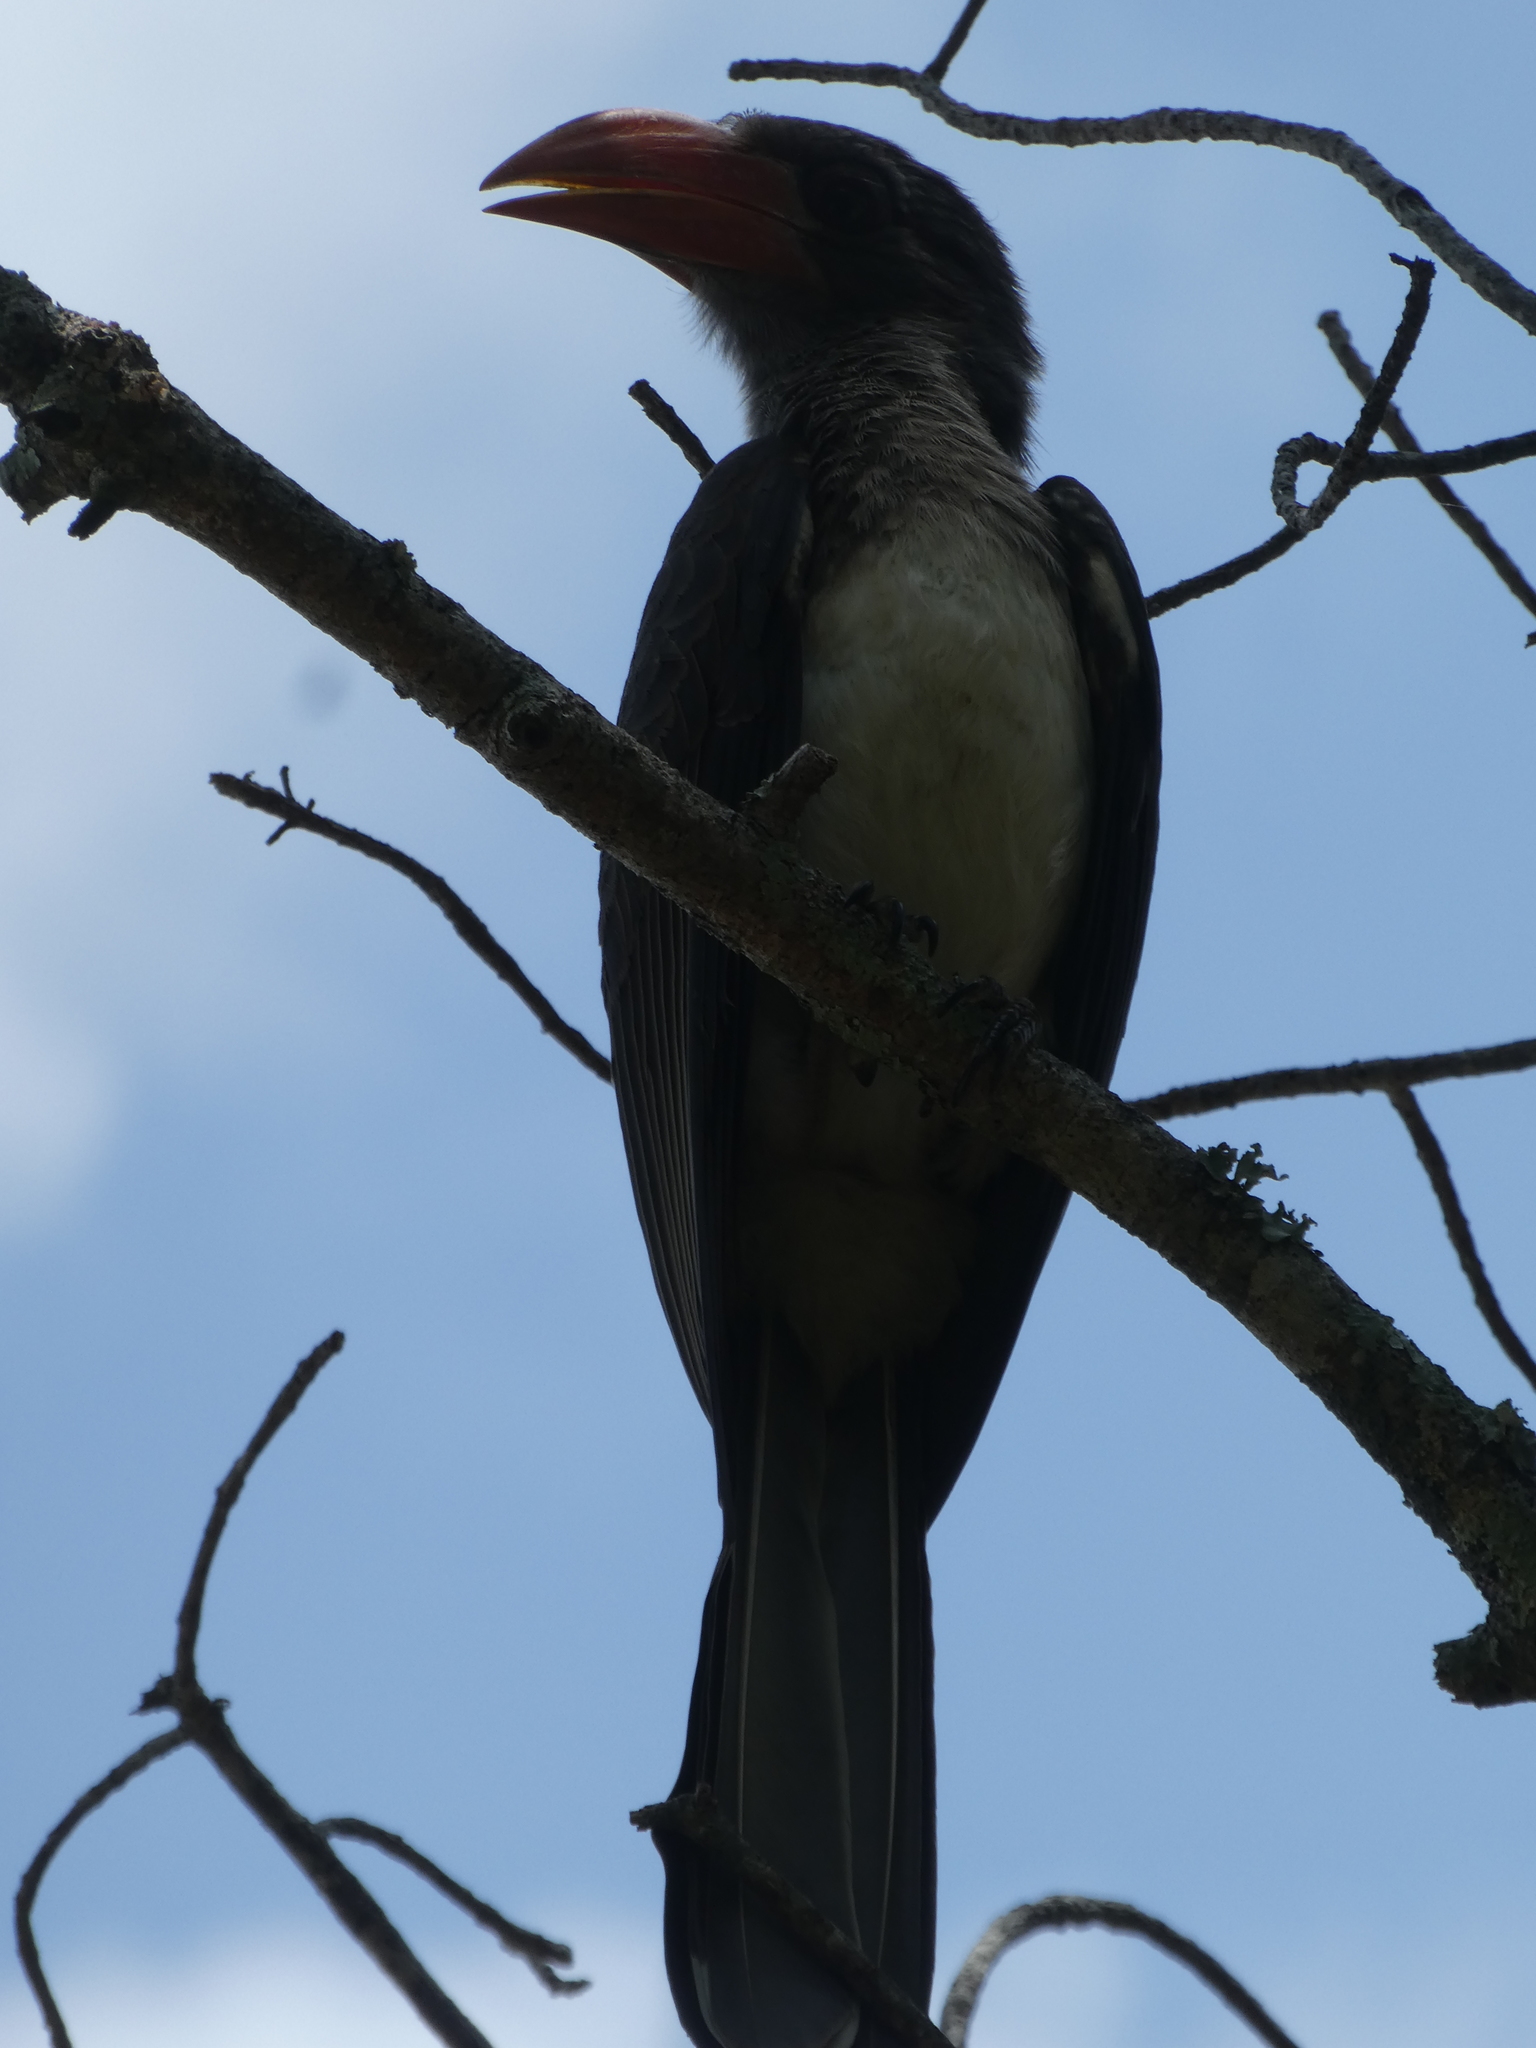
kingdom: Animalia
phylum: Chordata
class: Aves
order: Bucerotiformes
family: Bucerotidae
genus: Lophoceros
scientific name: Lophoceros alboterminatus
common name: Crowned hornbill
